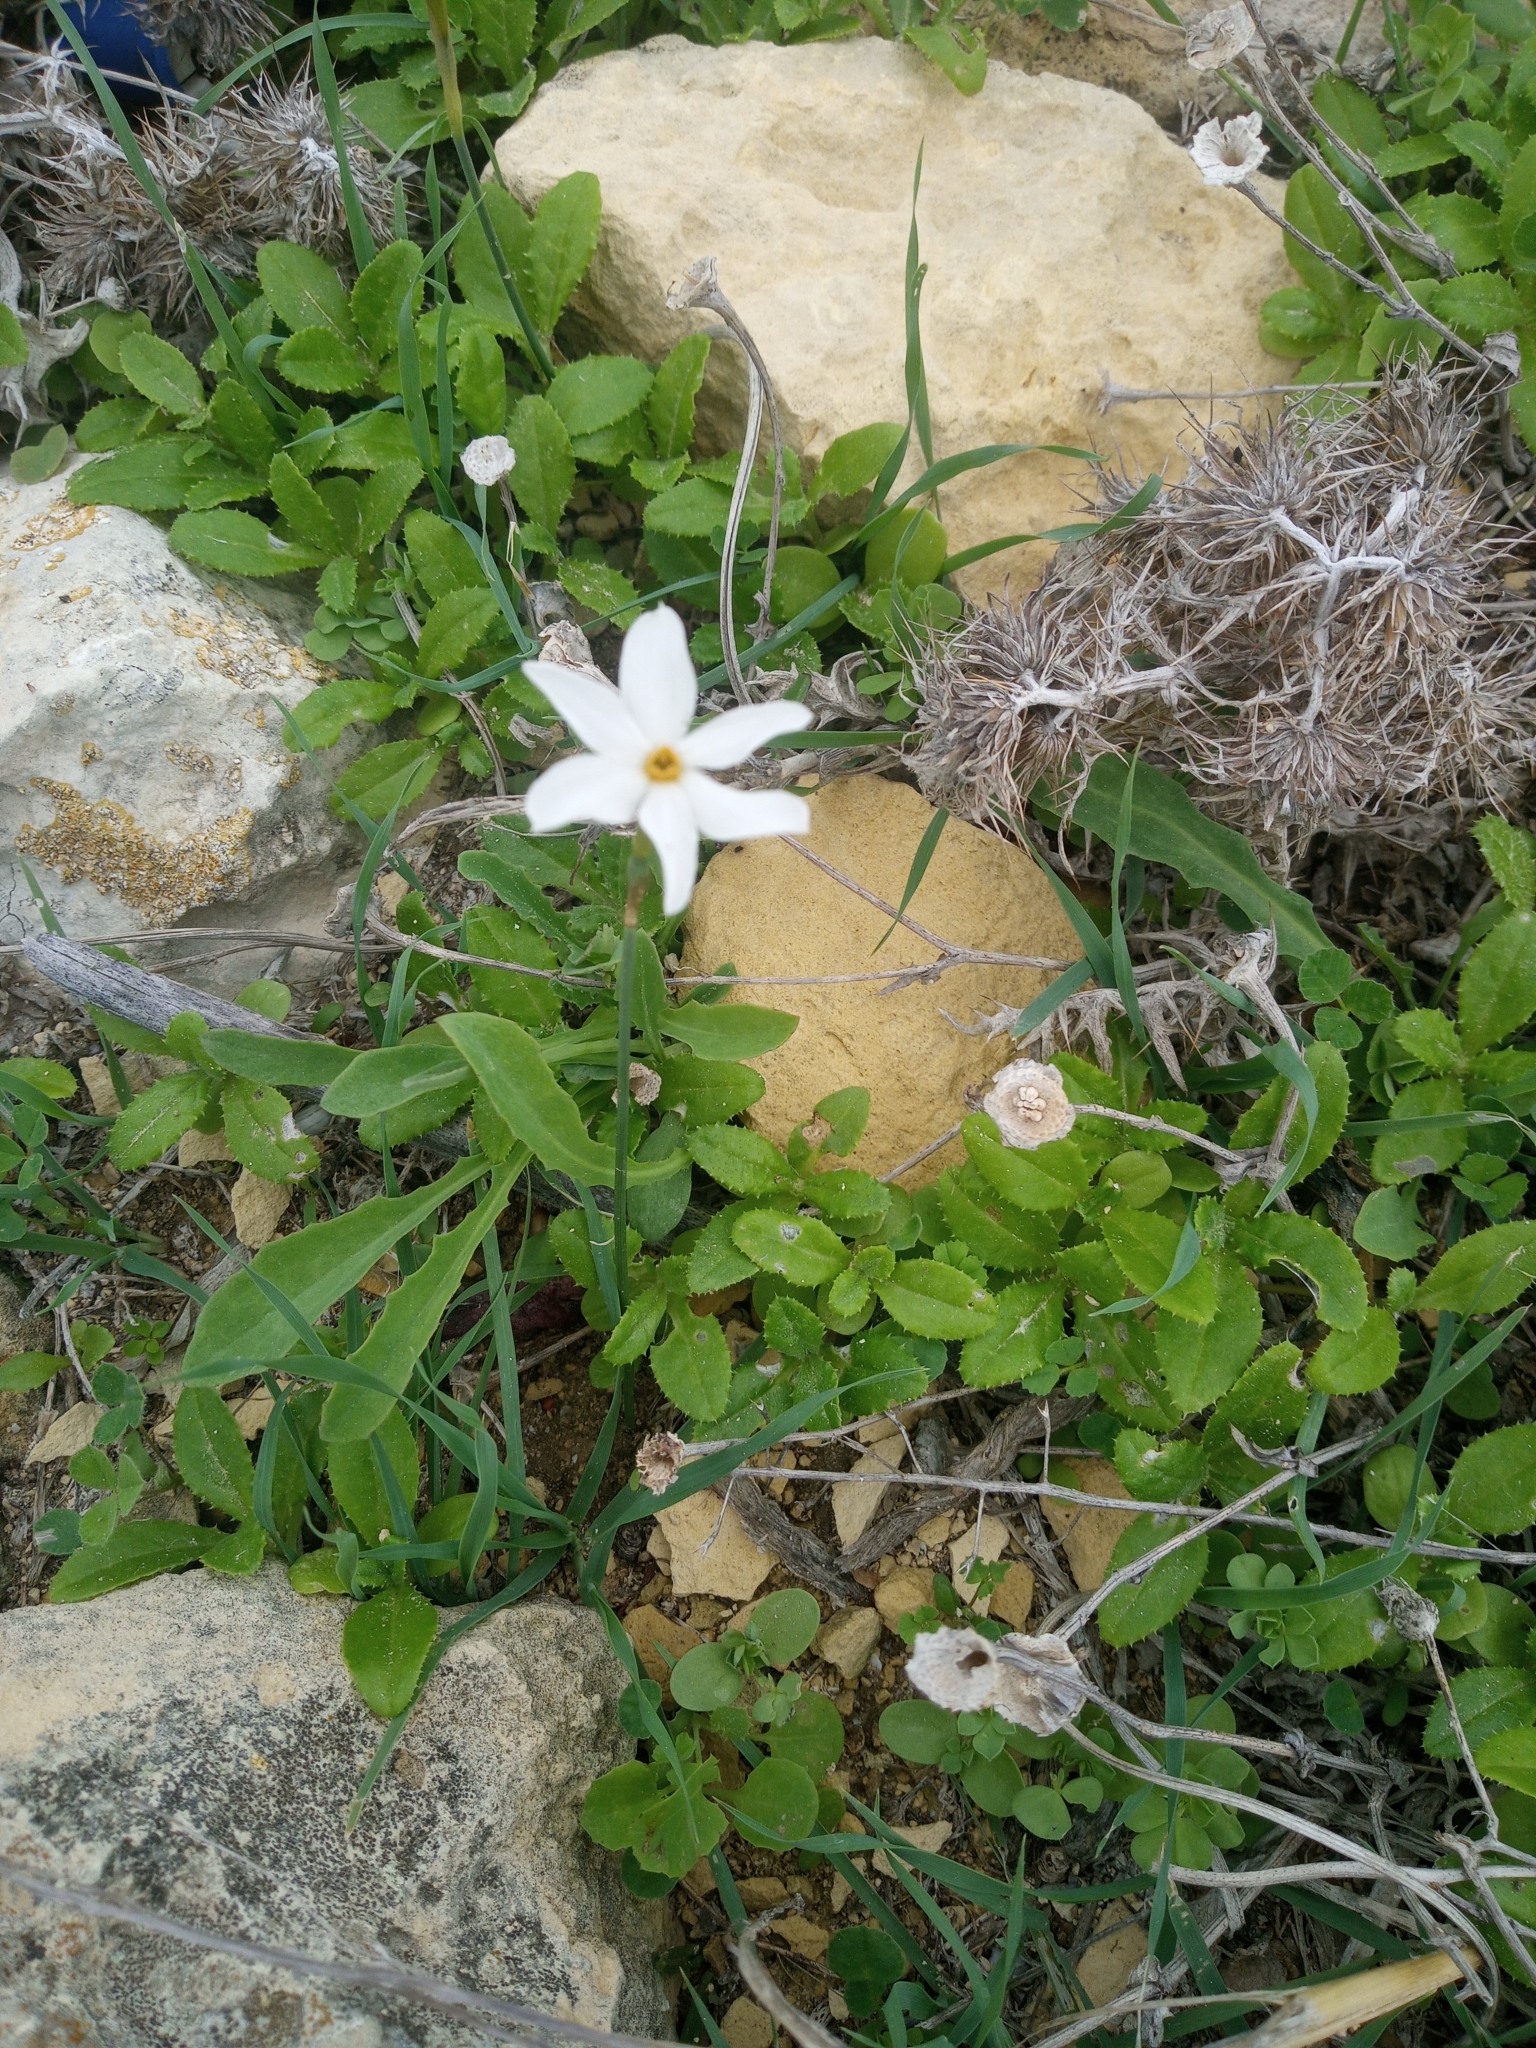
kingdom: Plantae
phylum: Tracheophyta
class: Liliopsida
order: Asparagales
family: Amaryllidaceae
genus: Narcissus
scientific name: Narcissus deficiens
